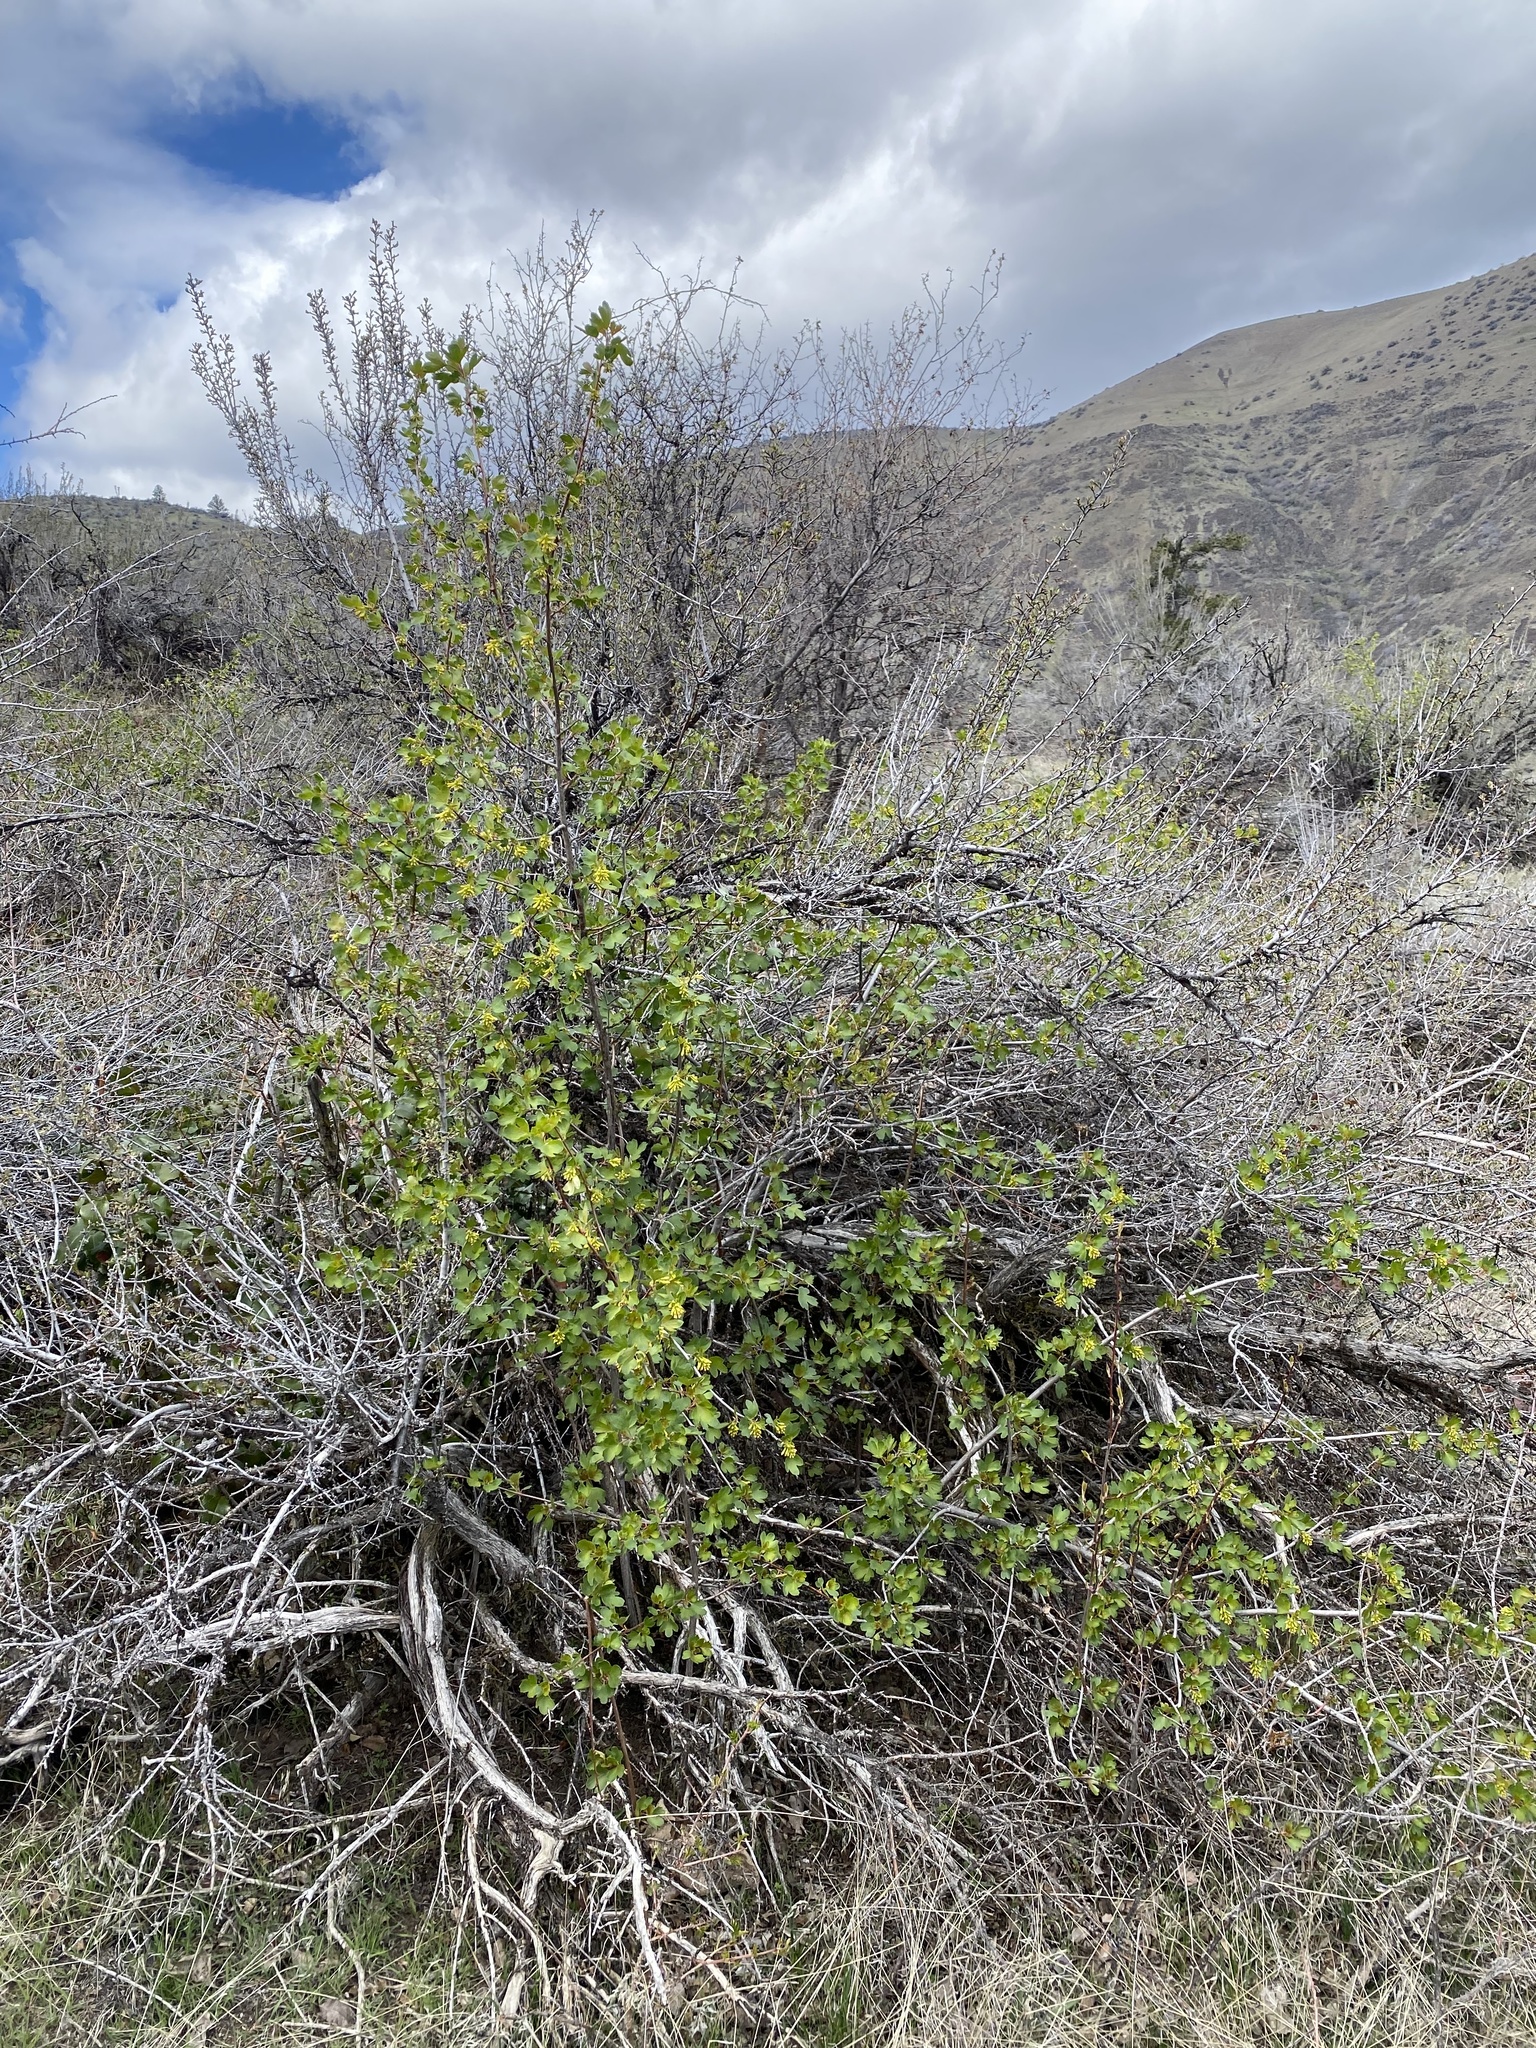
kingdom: Plantae
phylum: Tracheophyta
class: Magnoliopsida
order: Saxifragales
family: Grossulariaceae
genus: Ribes
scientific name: Ribes aureum
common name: Golden currant
